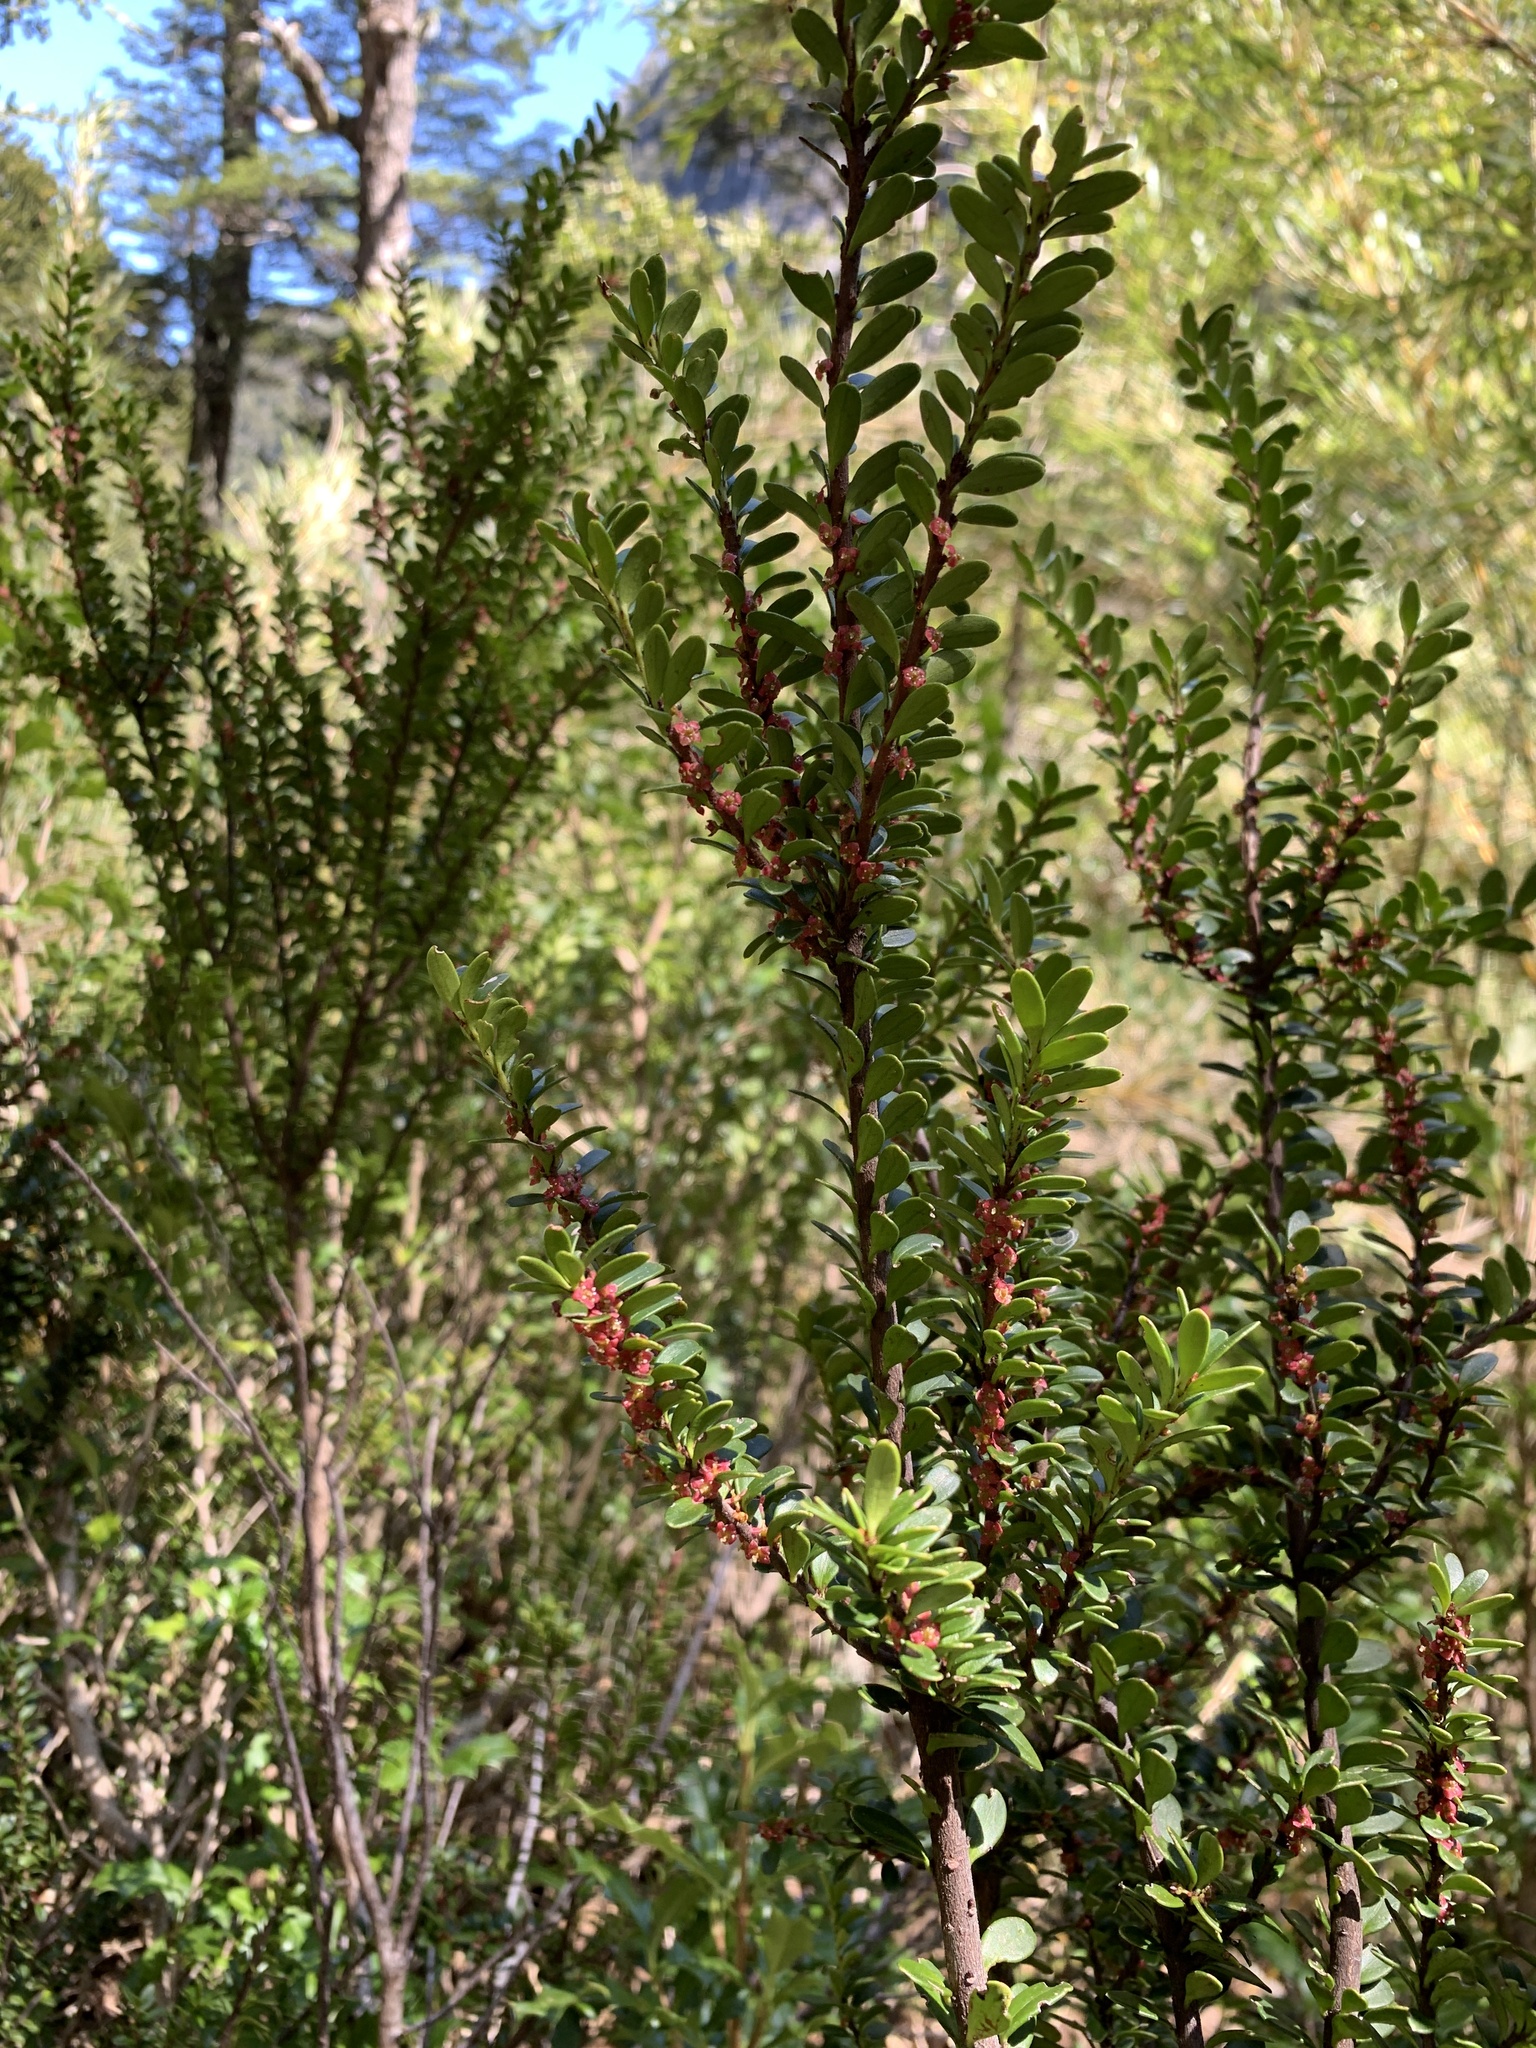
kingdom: Plantae
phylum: Tracheophyta
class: Magnoliopsida
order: Celastrales
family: Celastraceae
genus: Maytenus
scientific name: Maytenus disticha
